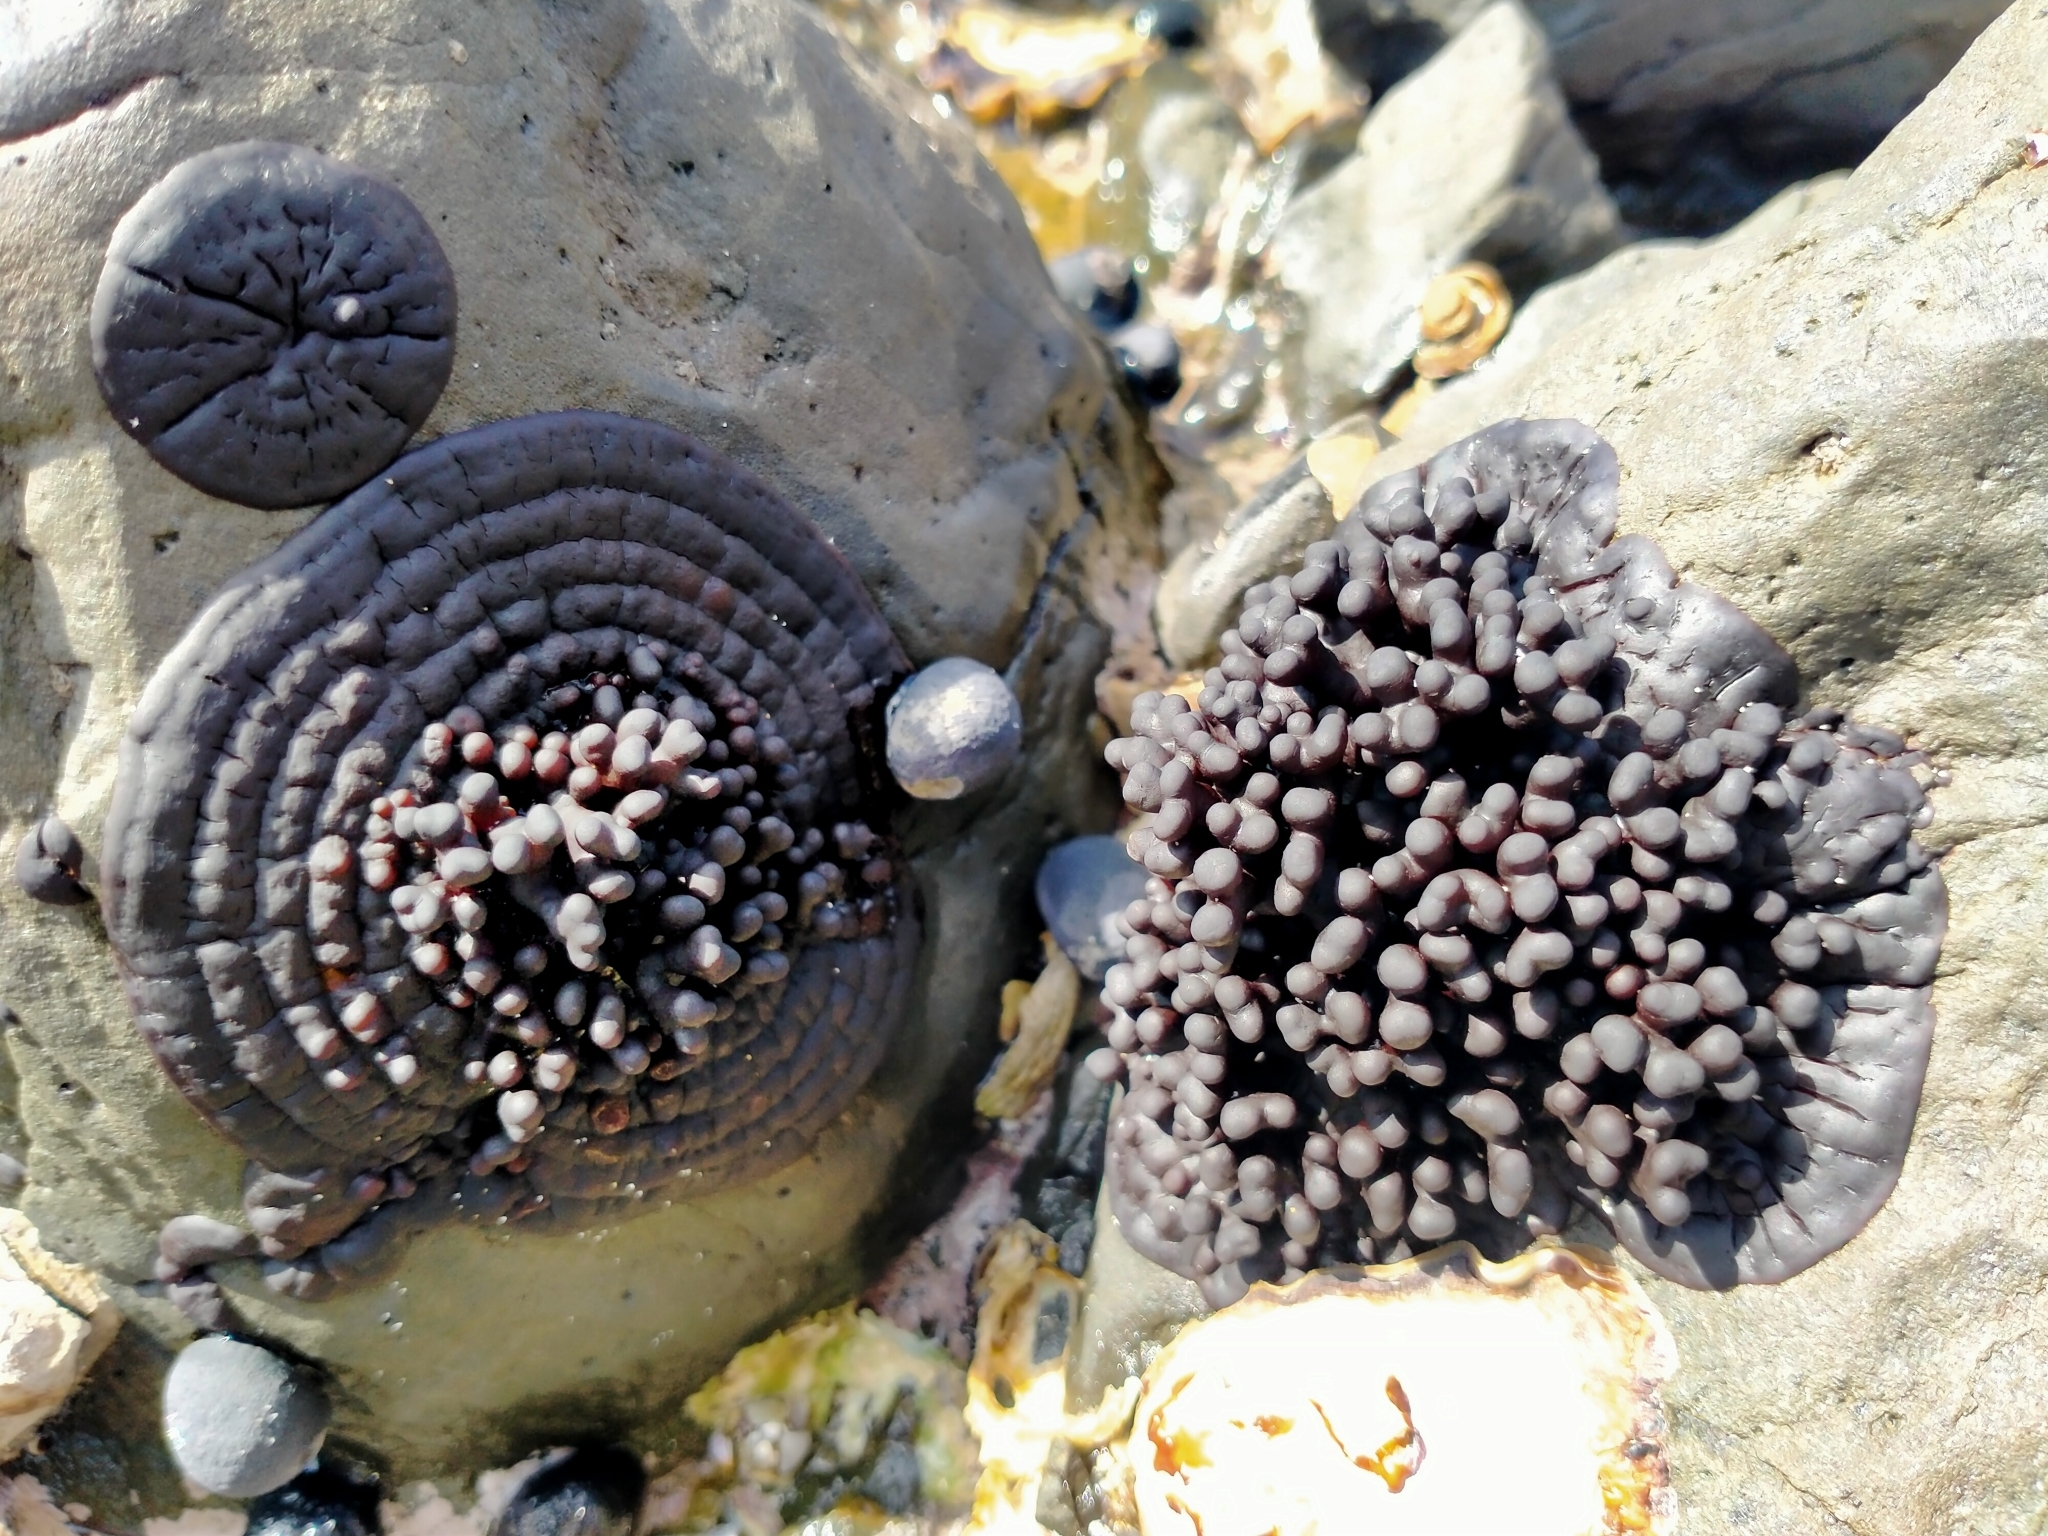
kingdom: Plantae
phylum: Rhodophyta
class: Florideophyceae
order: Hildenbrandiales
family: Hildenbrandiaceae
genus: Apophlaea
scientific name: Apophlaea sinclairii
